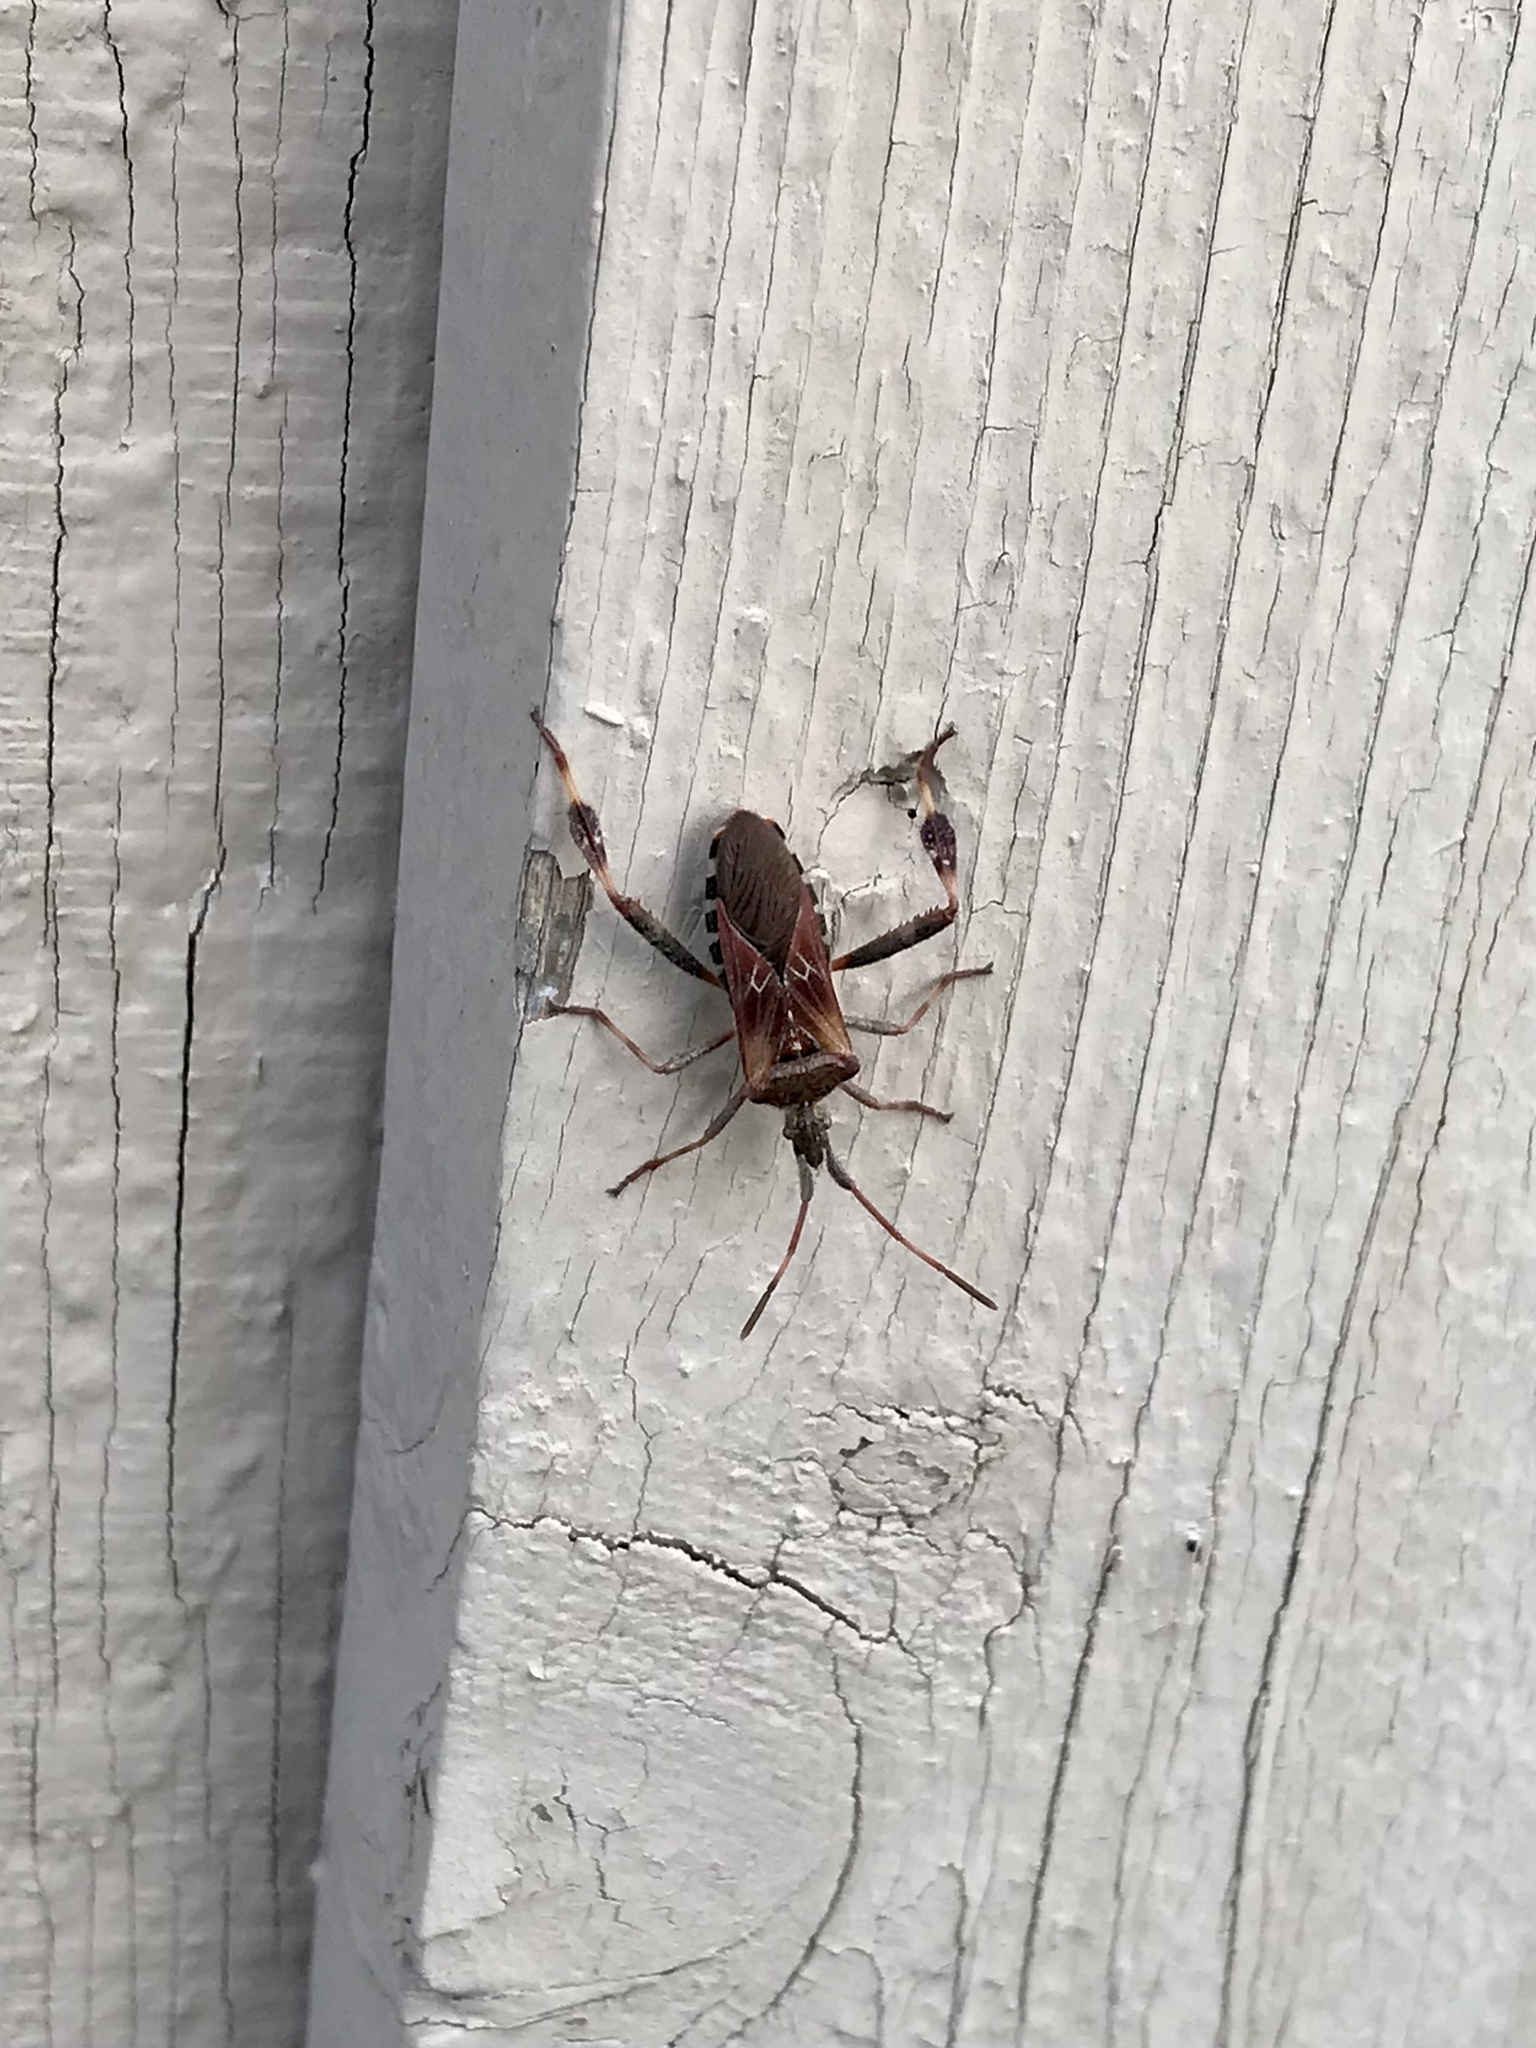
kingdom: Animalia
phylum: Arthropoda
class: Insecta
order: Hemiptera
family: Coreidae
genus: Leptoglossus
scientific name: Leptoglossus occidentalis
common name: Western conifer-seed bug
